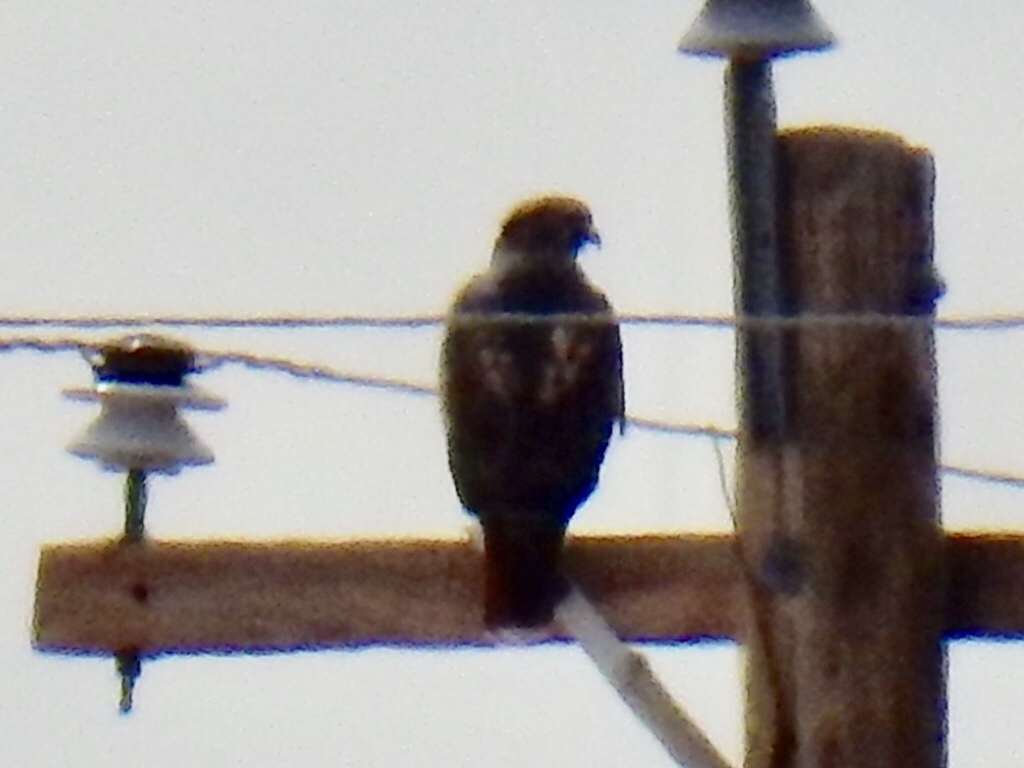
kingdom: Animalia
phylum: Chordata
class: Aves
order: Accipitriformes
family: Accipitridae
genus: Buteo
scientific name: Buteo jamaicensis
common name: Red-tailed hawk
